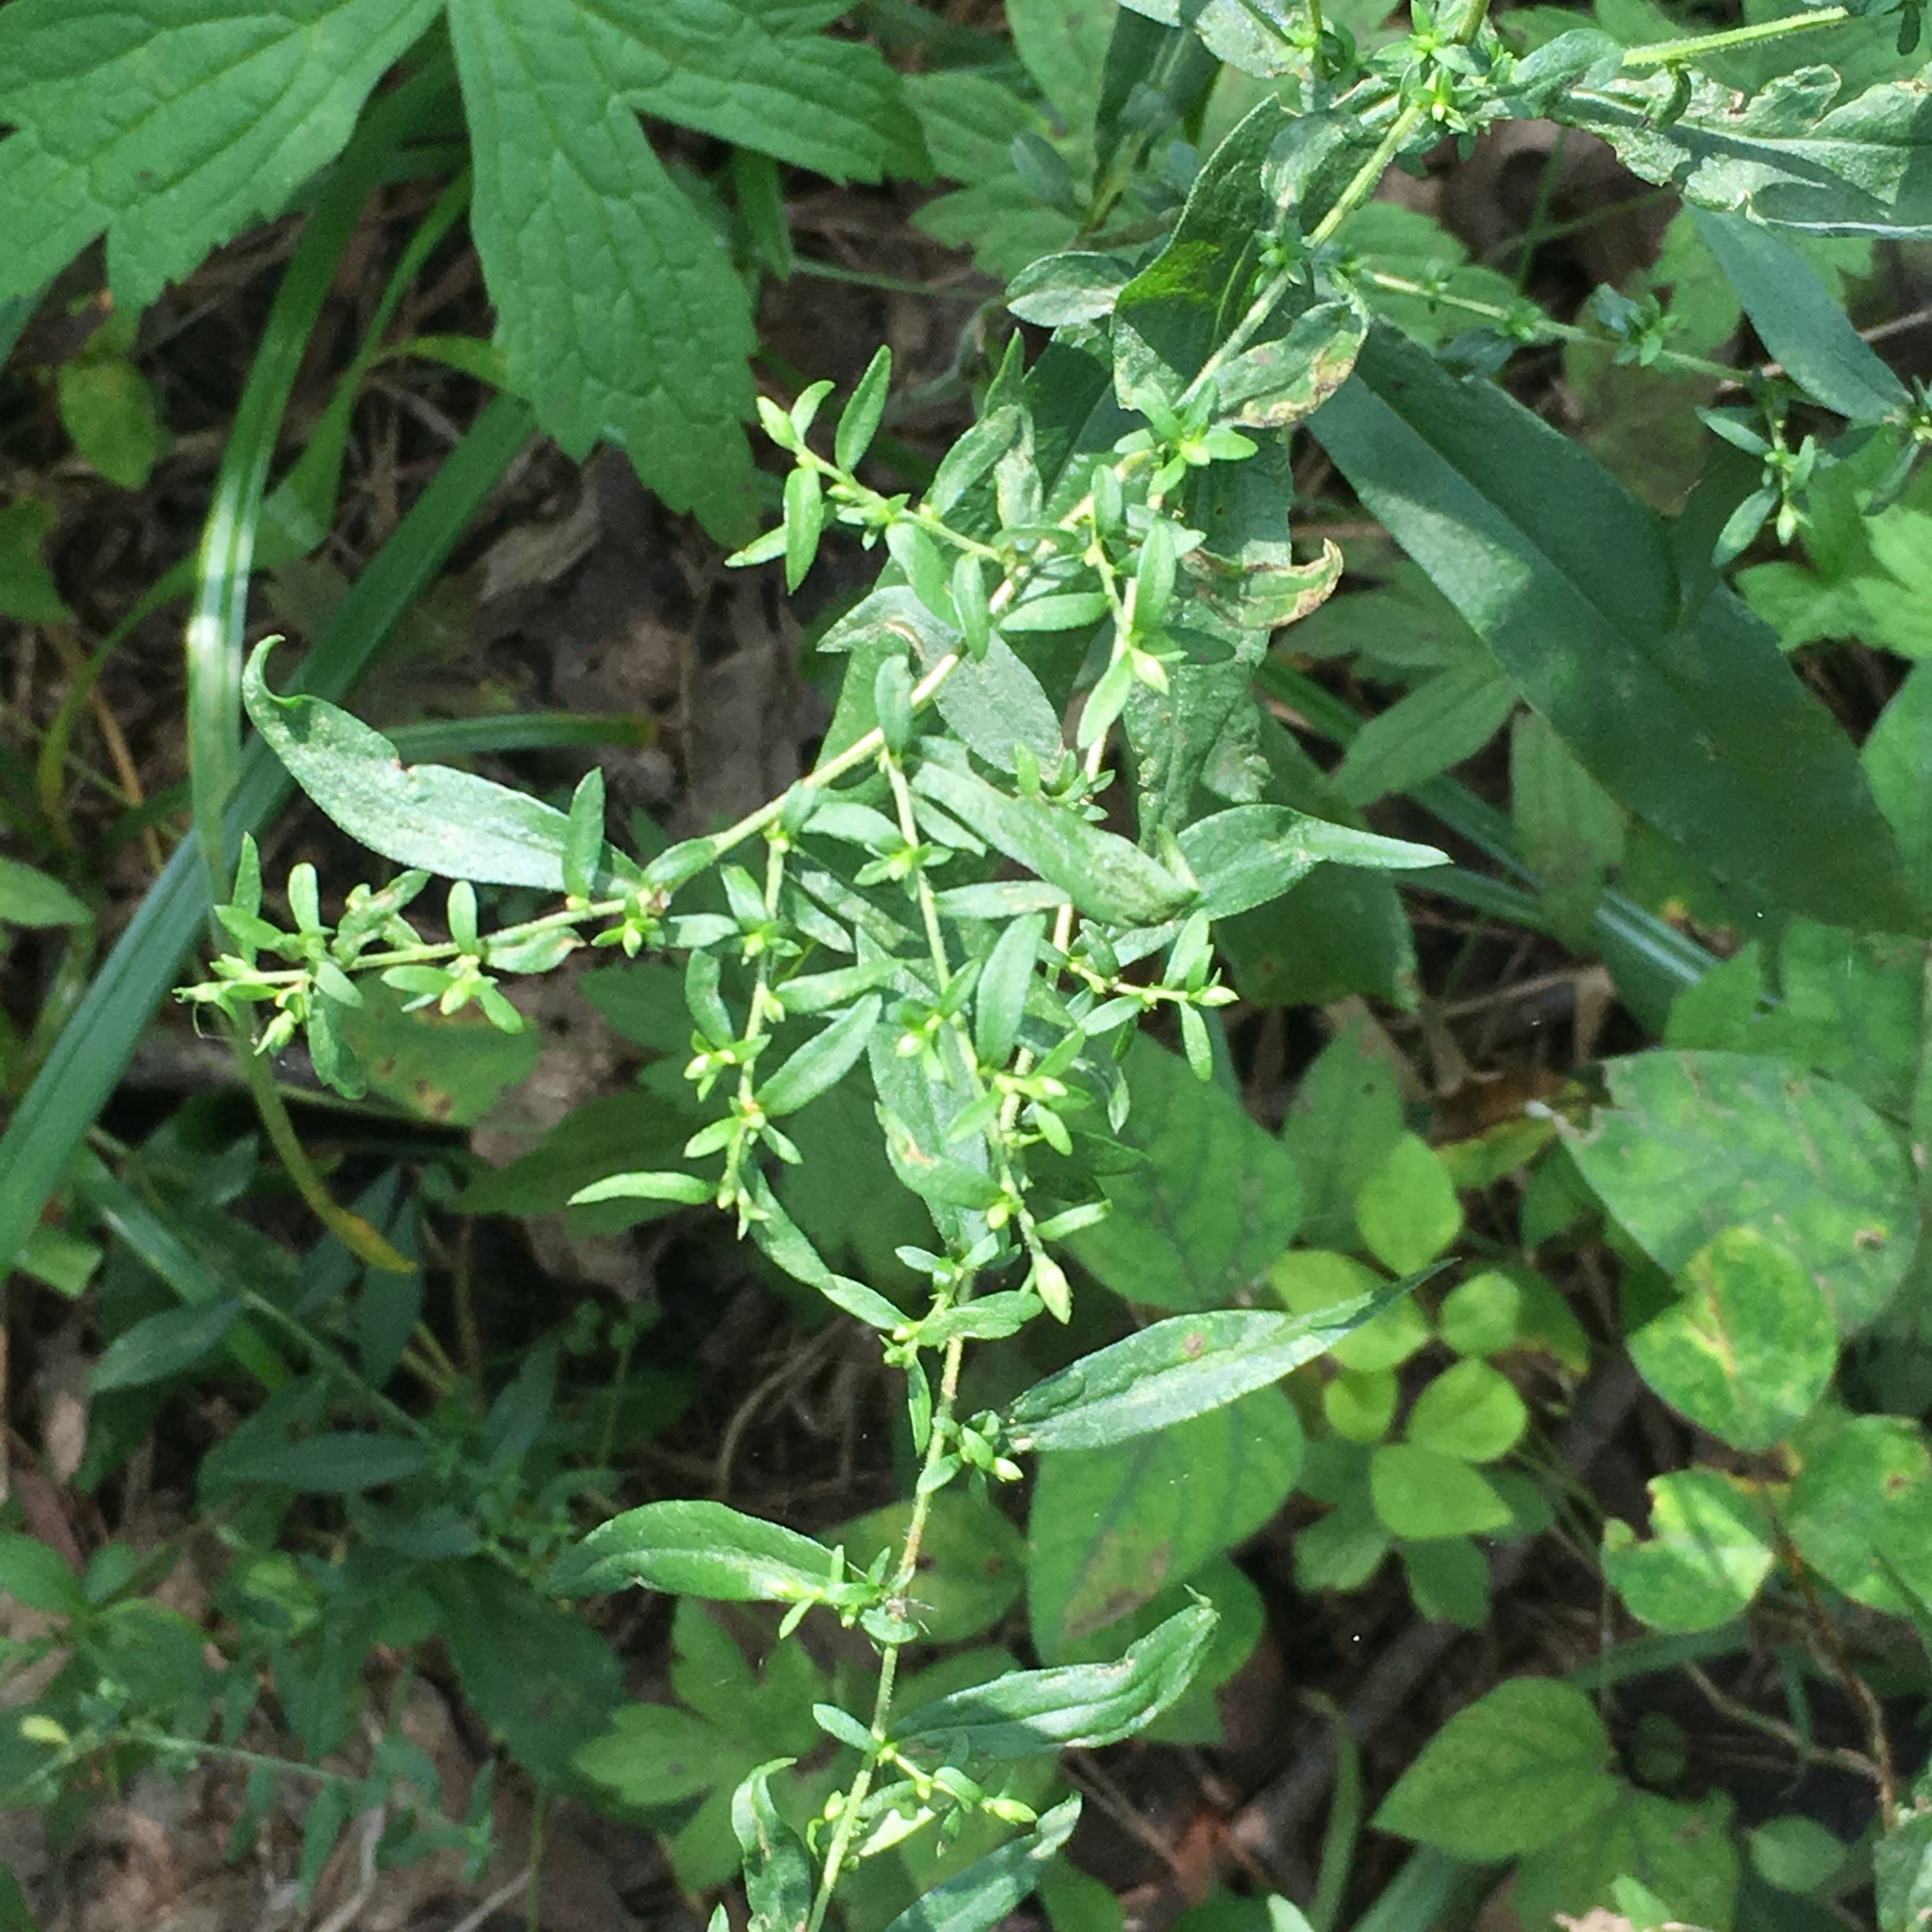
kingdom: Plantae
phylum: Tracheophyta
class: Magnoliopsida
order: Asterales
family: Asteraceae
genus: Symphyotrichum
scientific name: Symphyotrichum lateriflorum
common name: Calico aster
